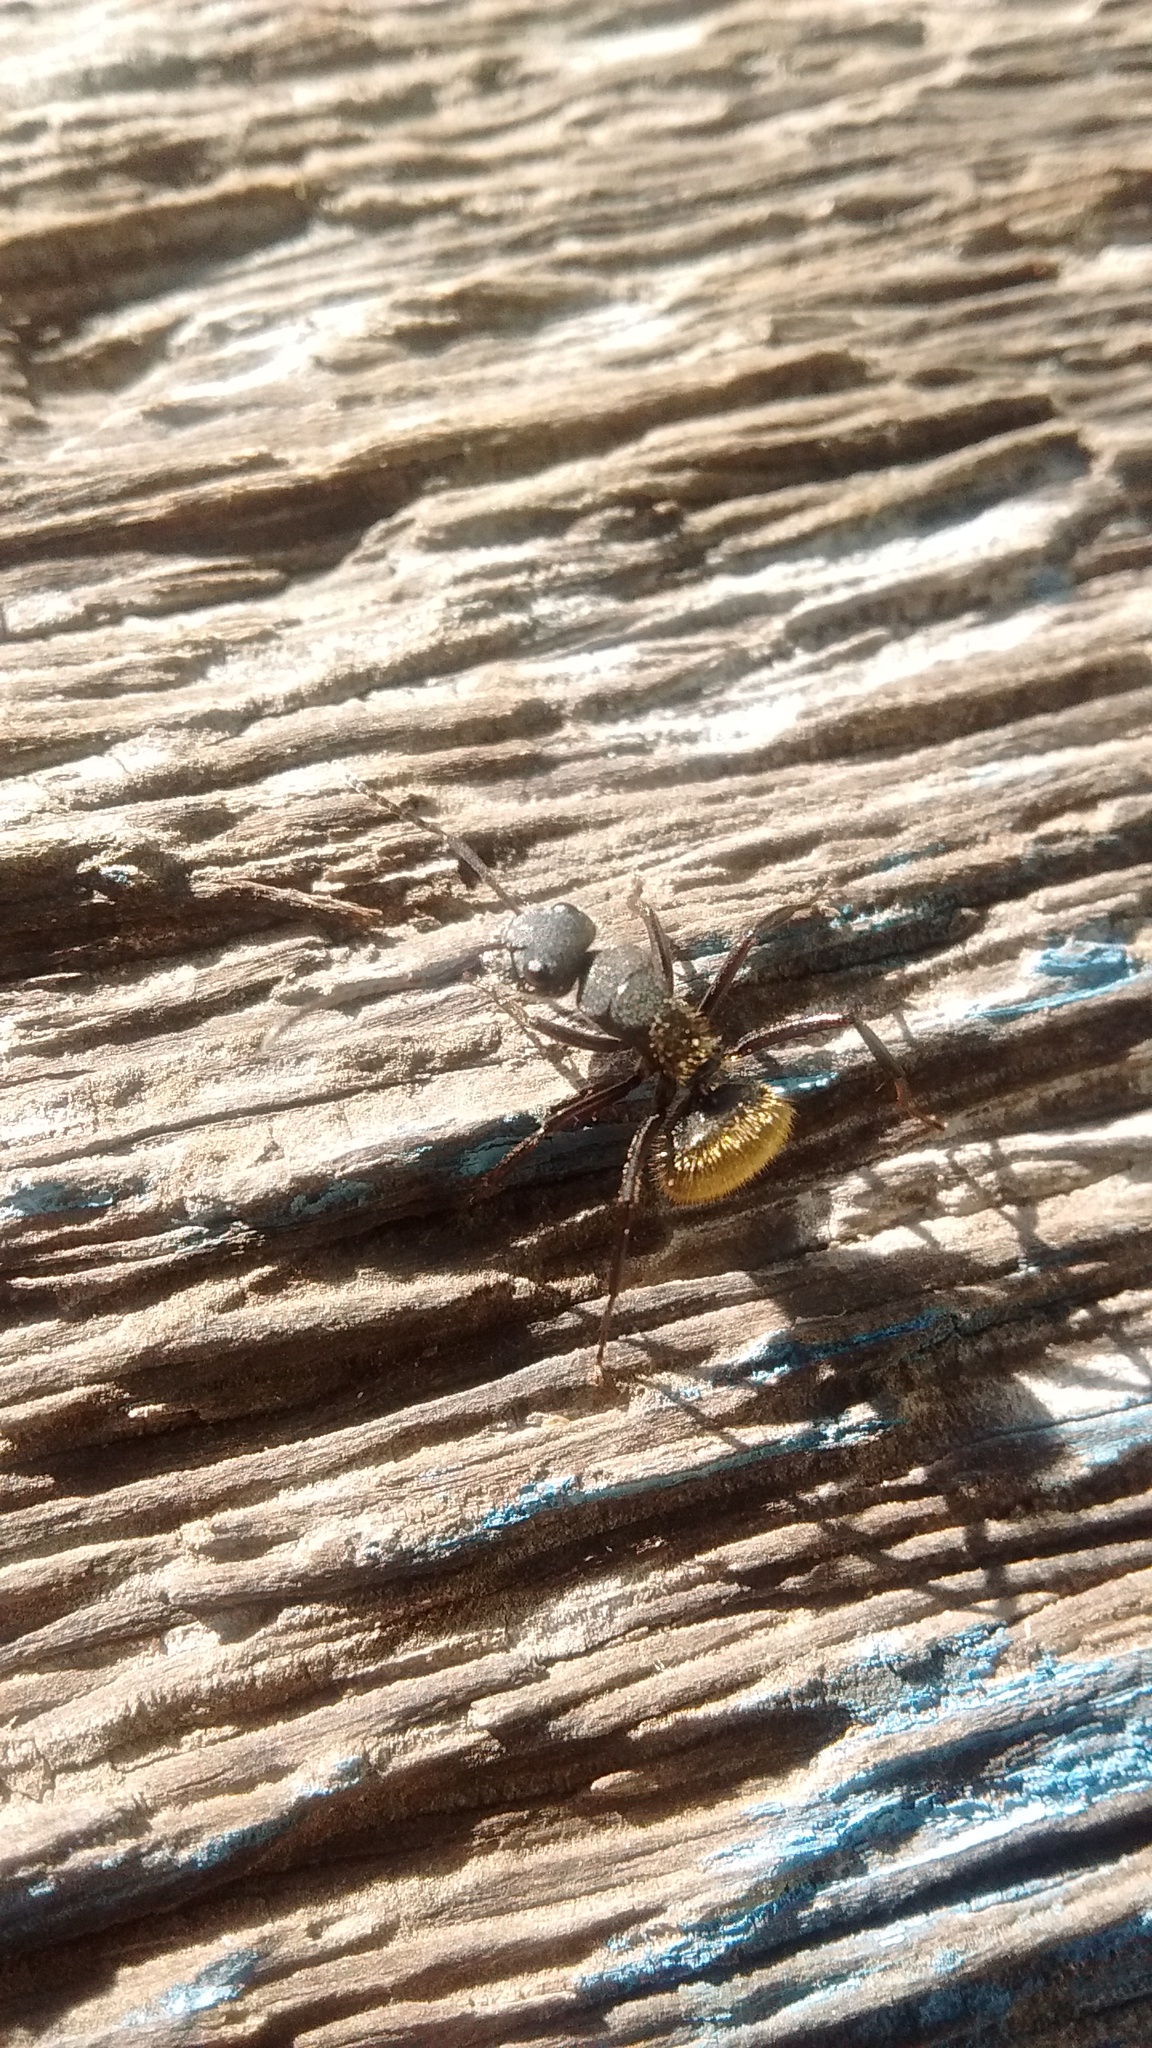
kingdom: Animalia
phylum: Arthropoda
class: Insecta
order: Hymenoptera
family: Formicidae
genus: Camponotus
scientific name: Camponotus mus
